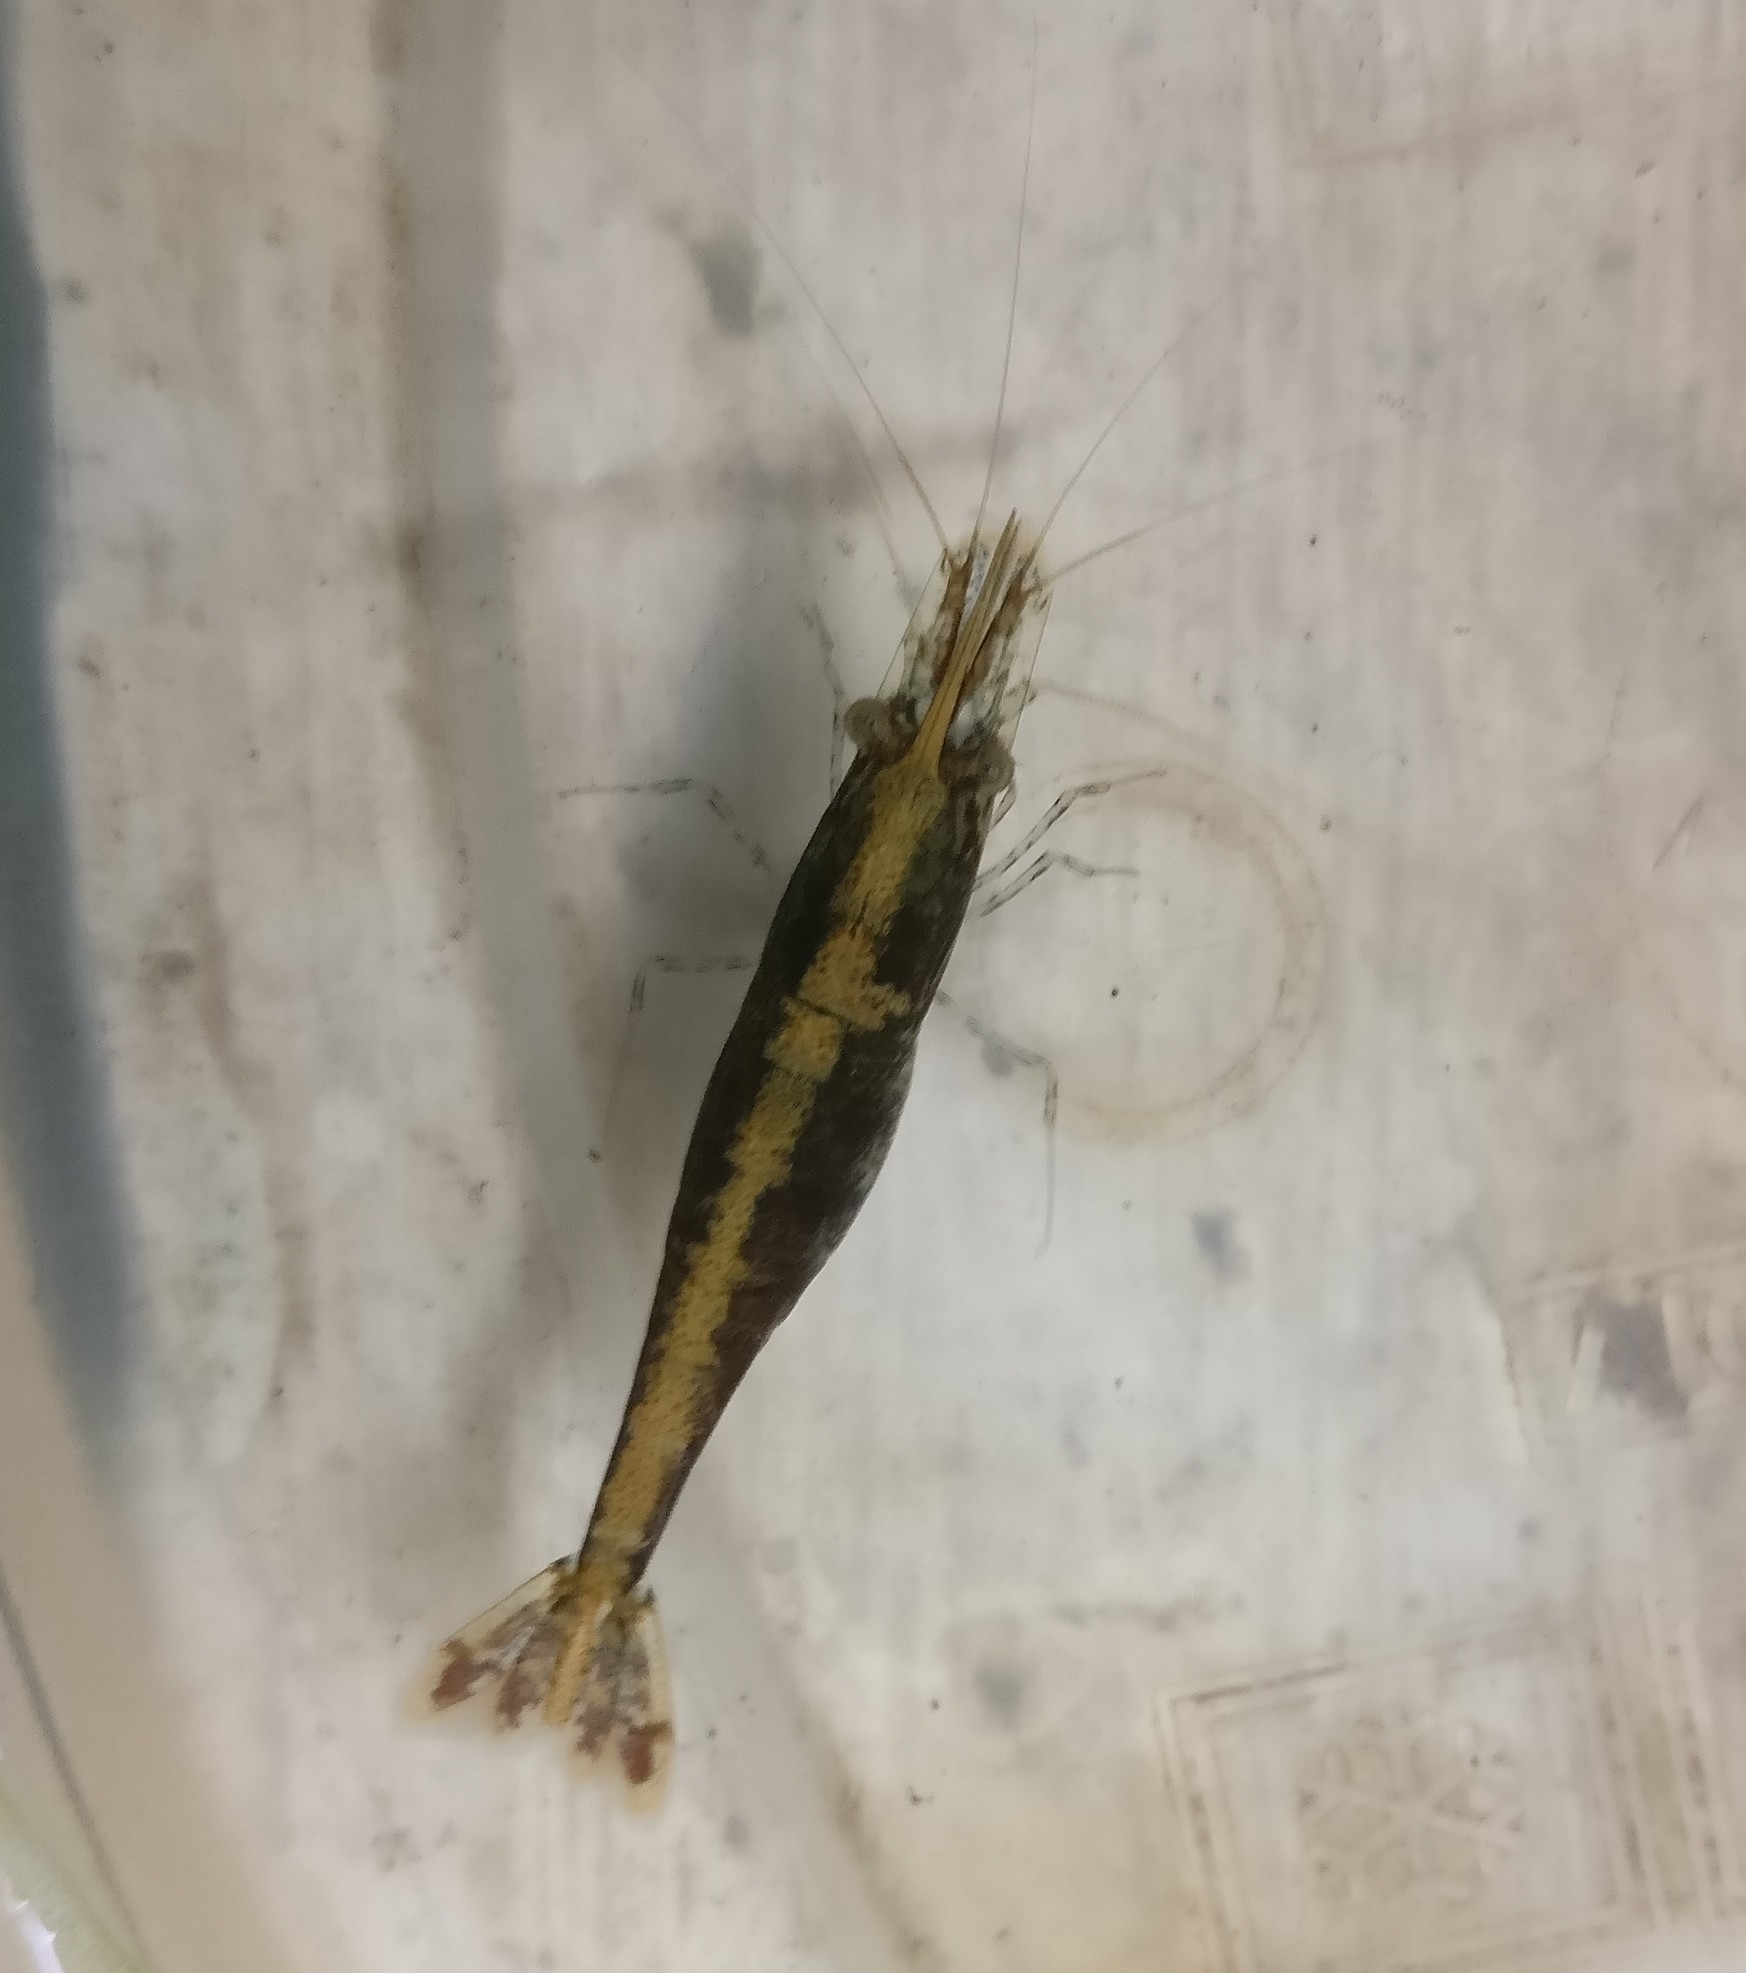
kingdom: Animalia
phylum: Arthropoda
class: Malacostraca
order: Decapoda
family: Atyidae
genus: Caridina
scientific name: Caridina babaulti
